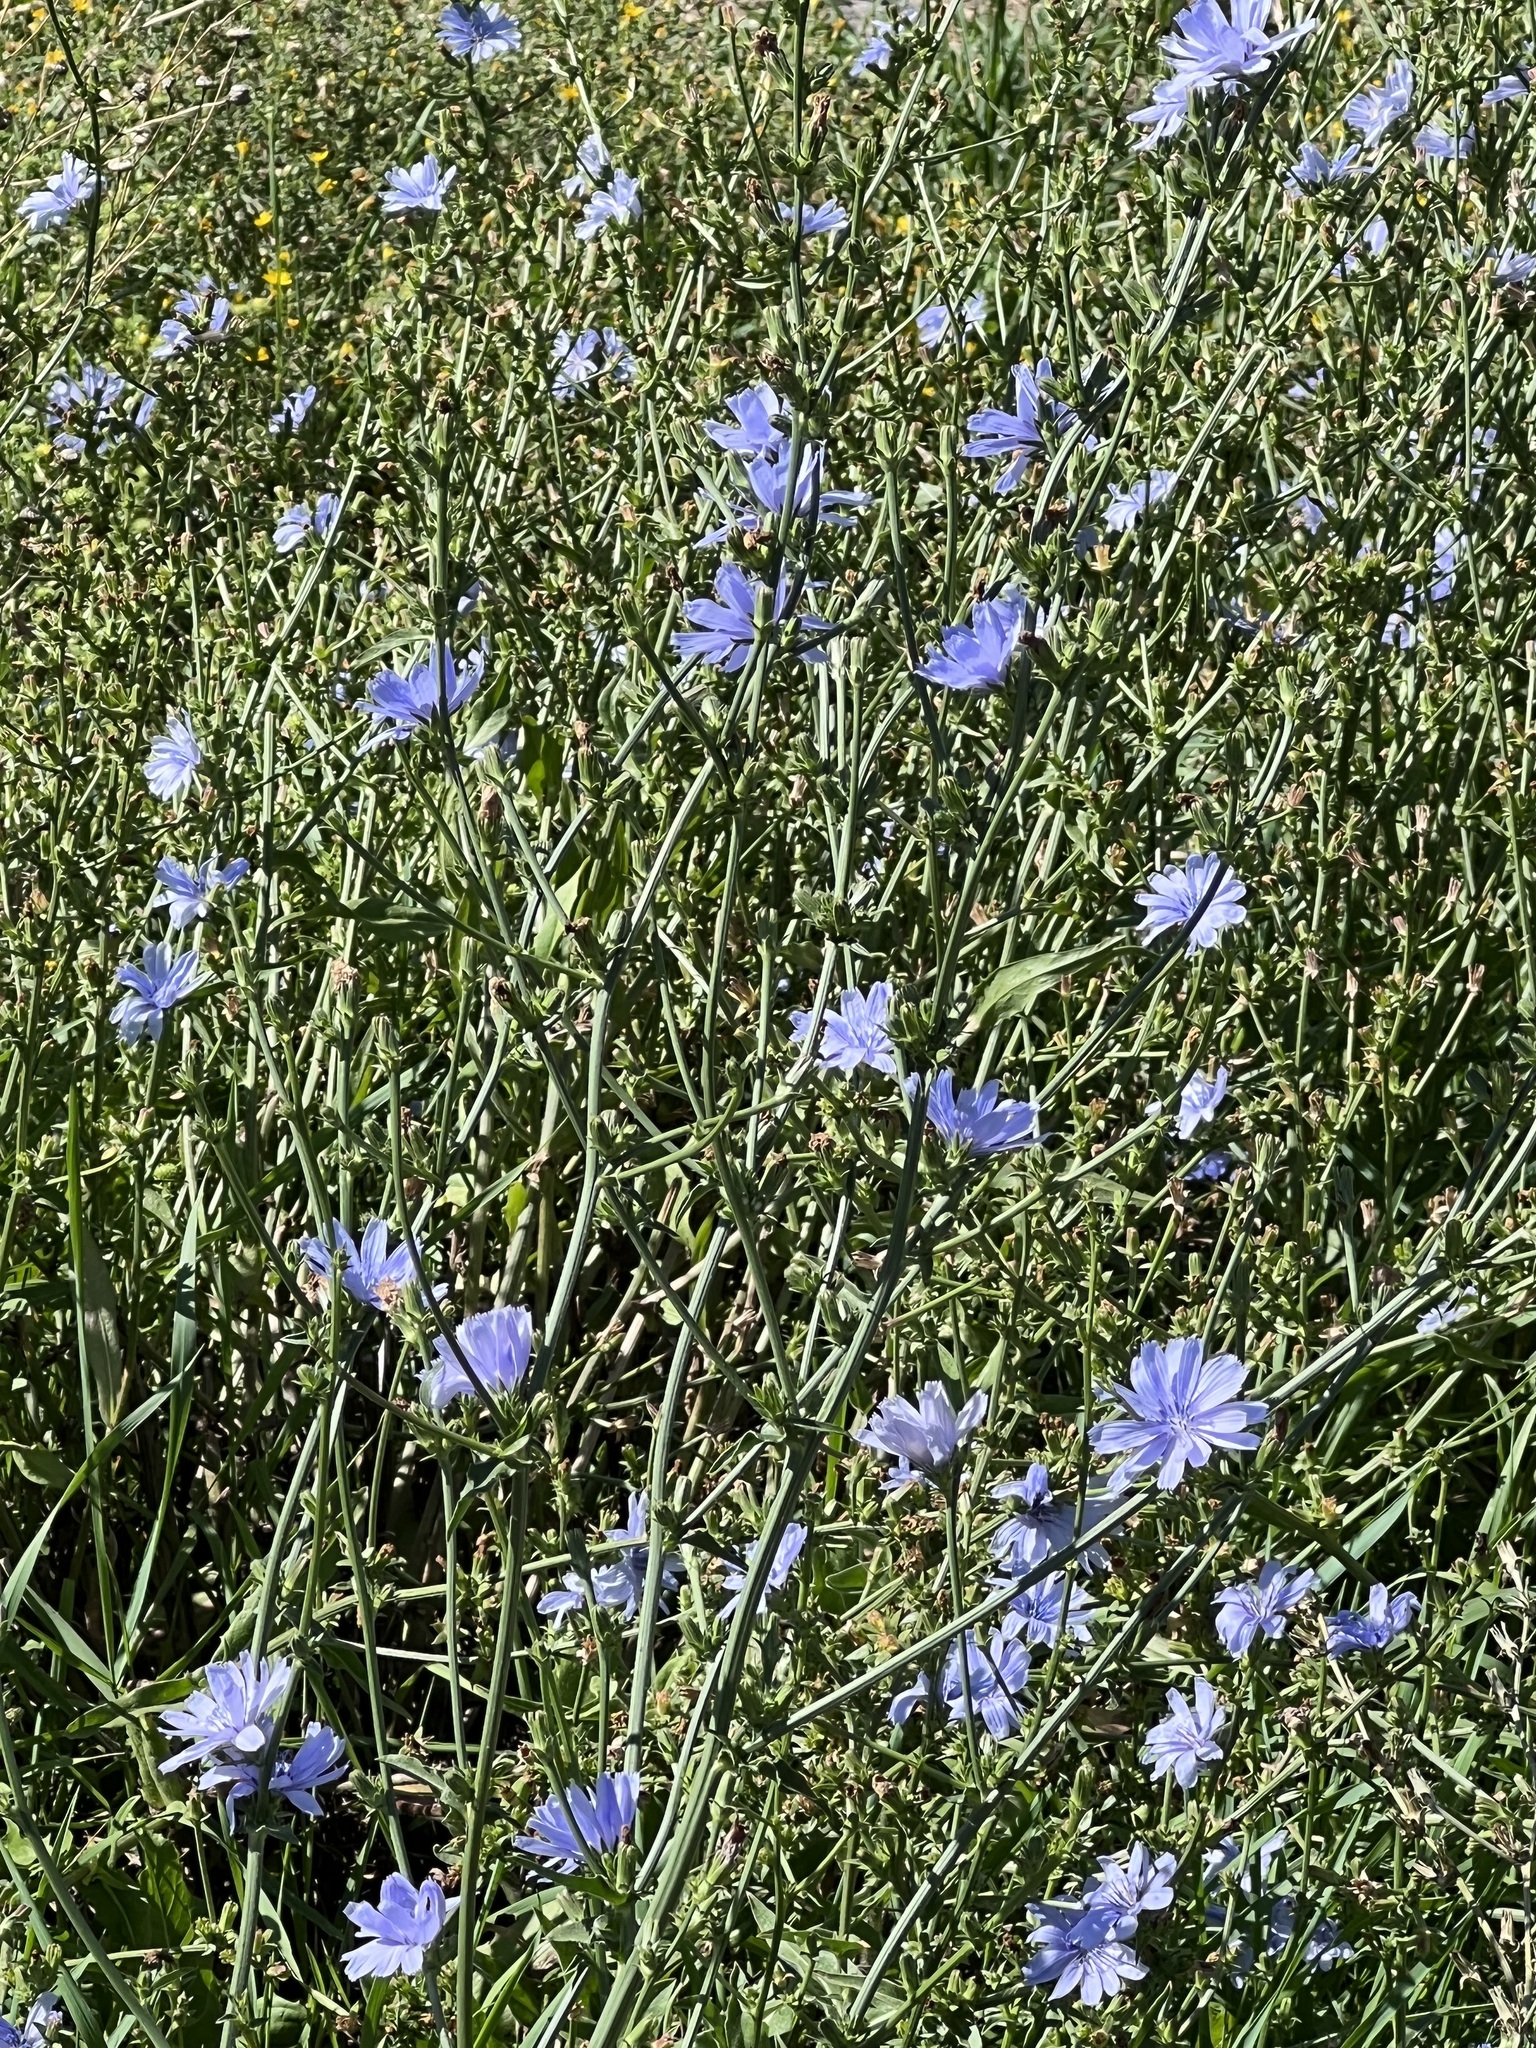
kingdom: Plantae
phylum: Tracheophyta
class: Magnoliopsida
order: Asterales
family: Asteraceae
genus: Cichorium
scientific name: Cichorium intybus
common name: Chicory
